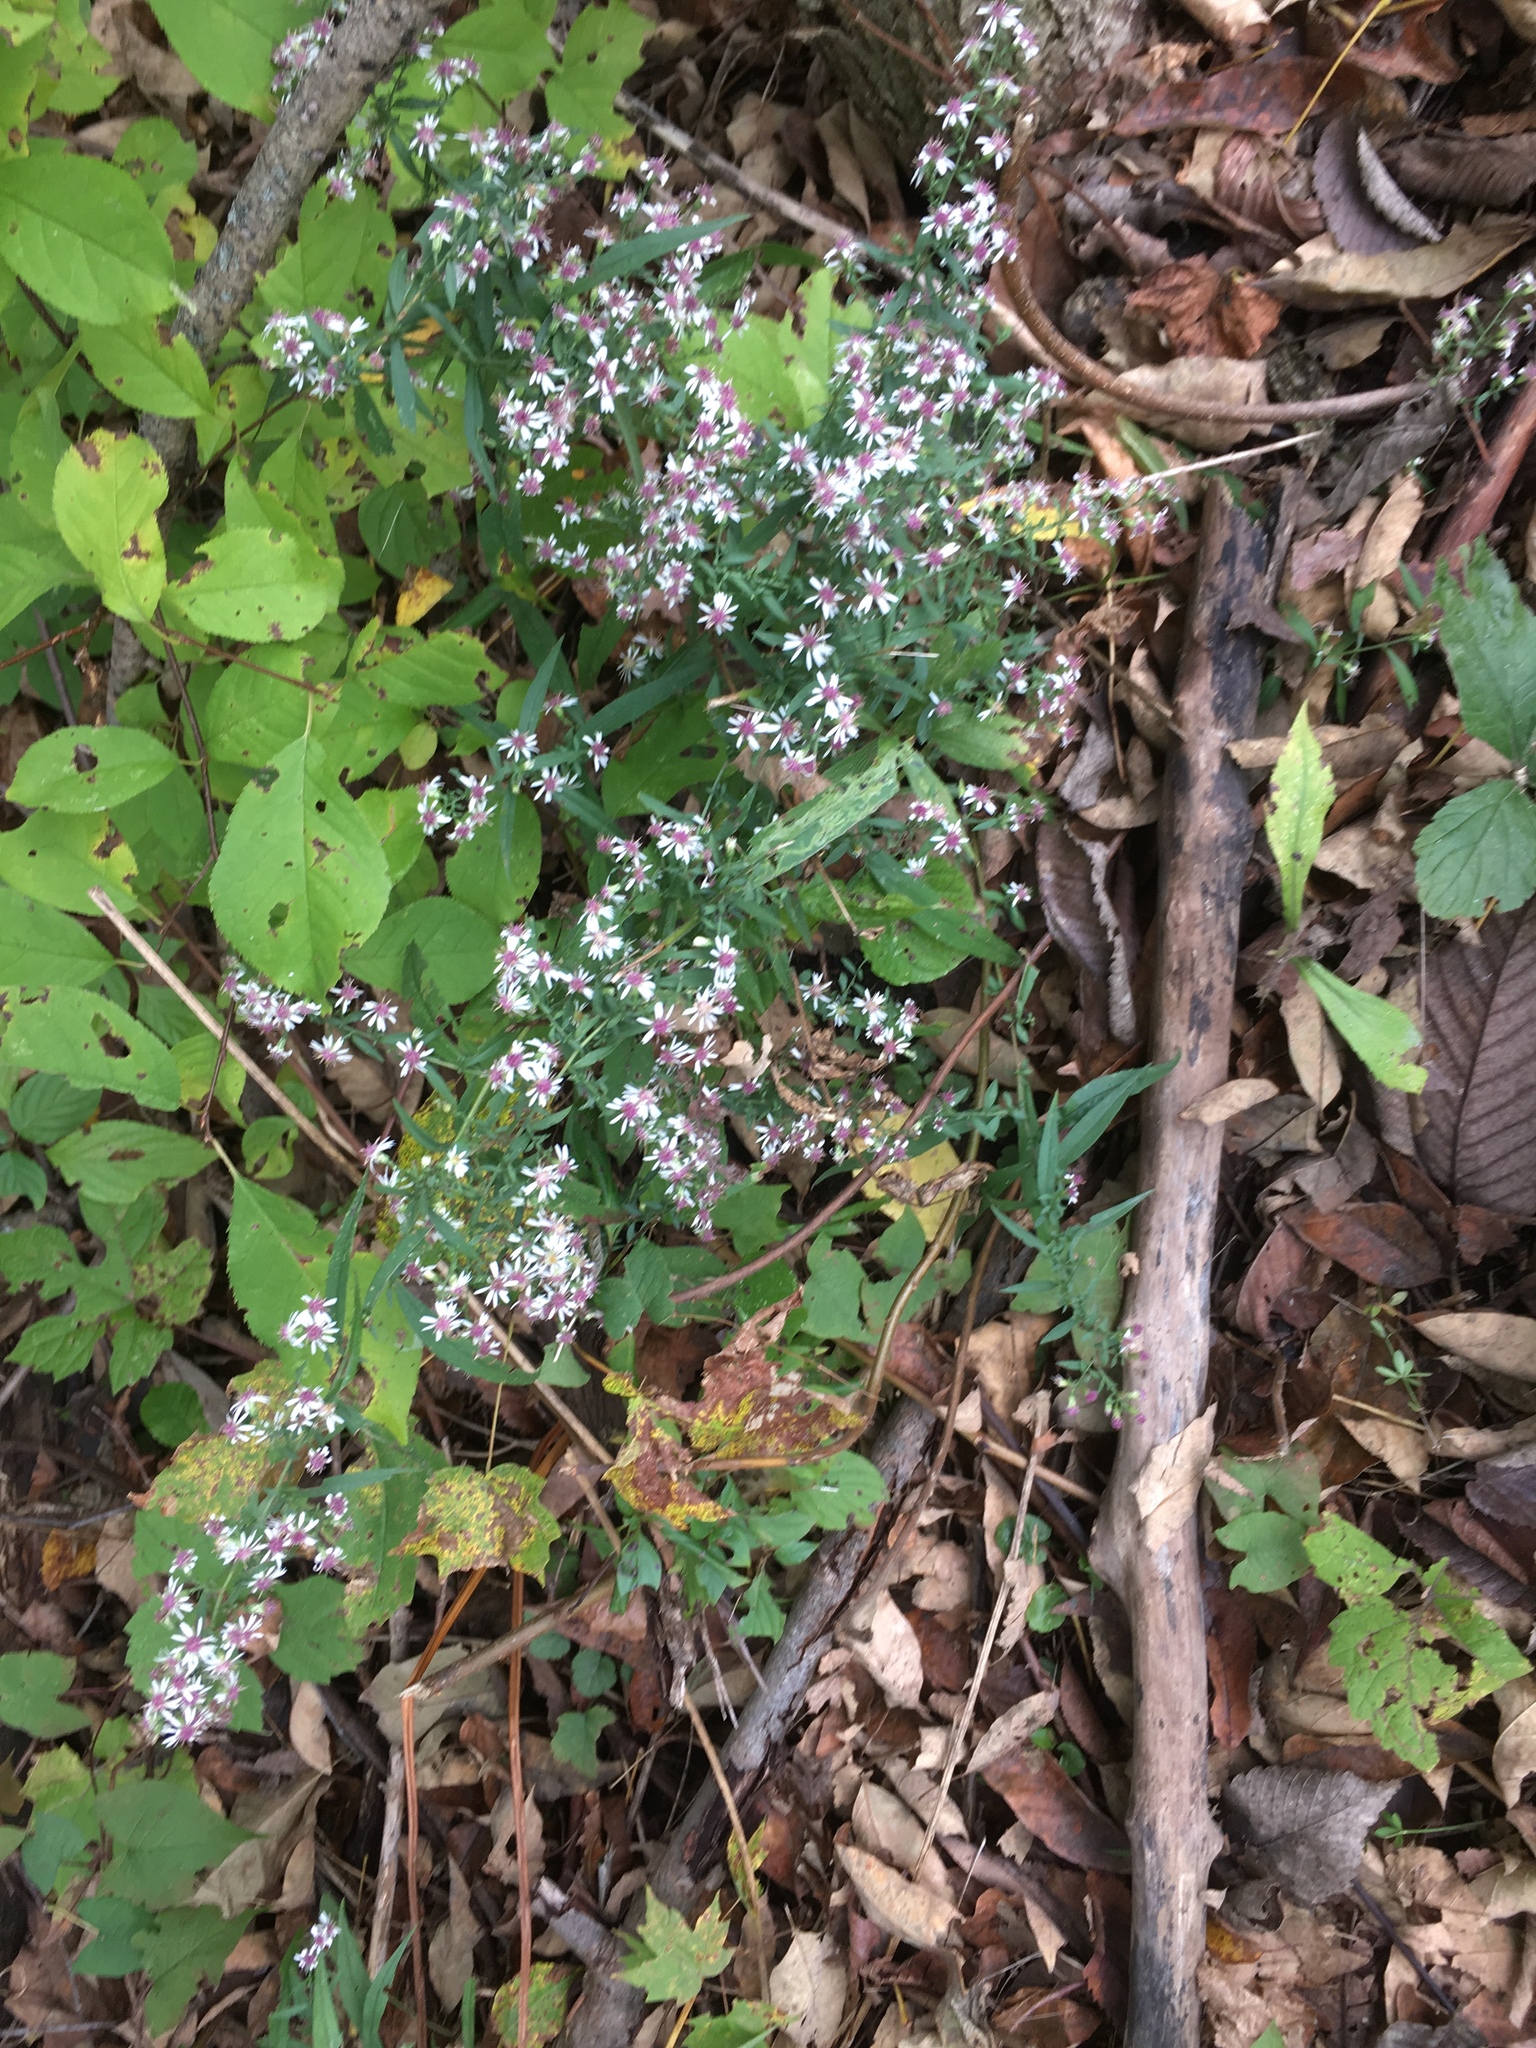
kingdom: Plantae
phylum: Tracheophyta
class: Magnoliopsida
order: Asterales
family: Asteraceae
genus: Symphyotrichum
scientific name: Symphyotrichum lateriflorum
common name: Calico aster
